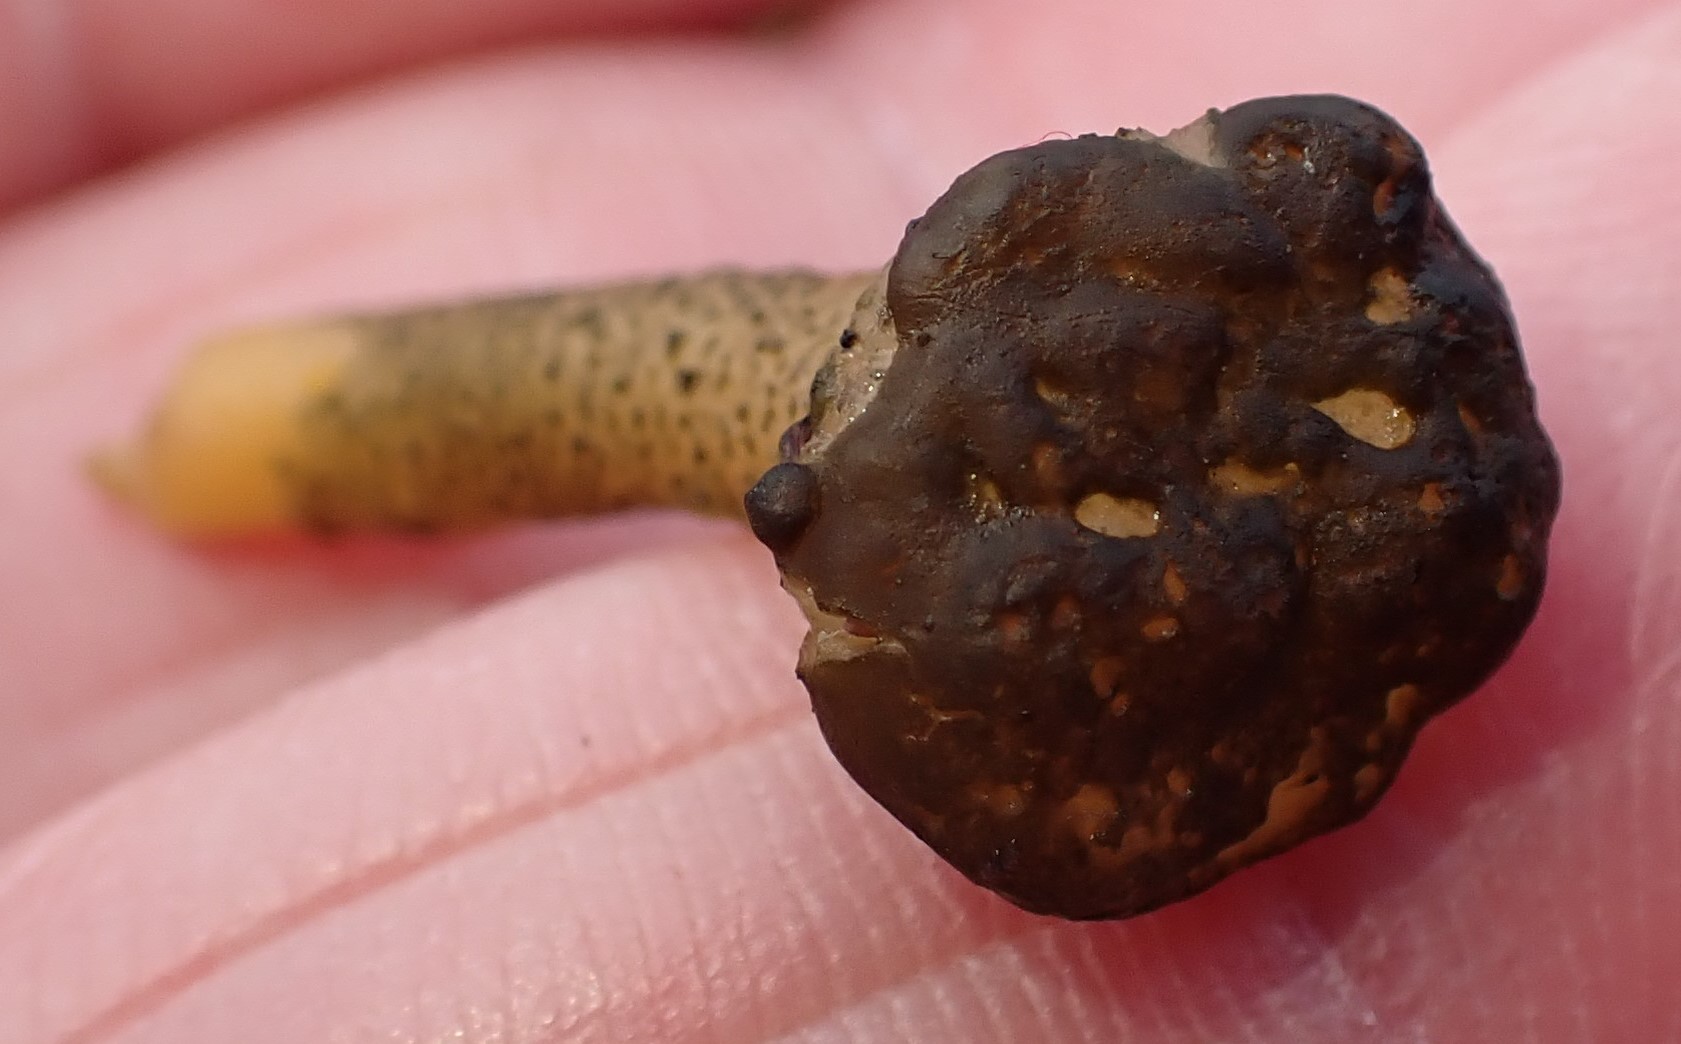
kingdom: Fungi
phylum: Ascomycota
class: Leotiomycetes
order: Leotiales
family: Leotiaceae
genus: Leotia
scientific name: Leotia lubrica
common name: Jellybaby
